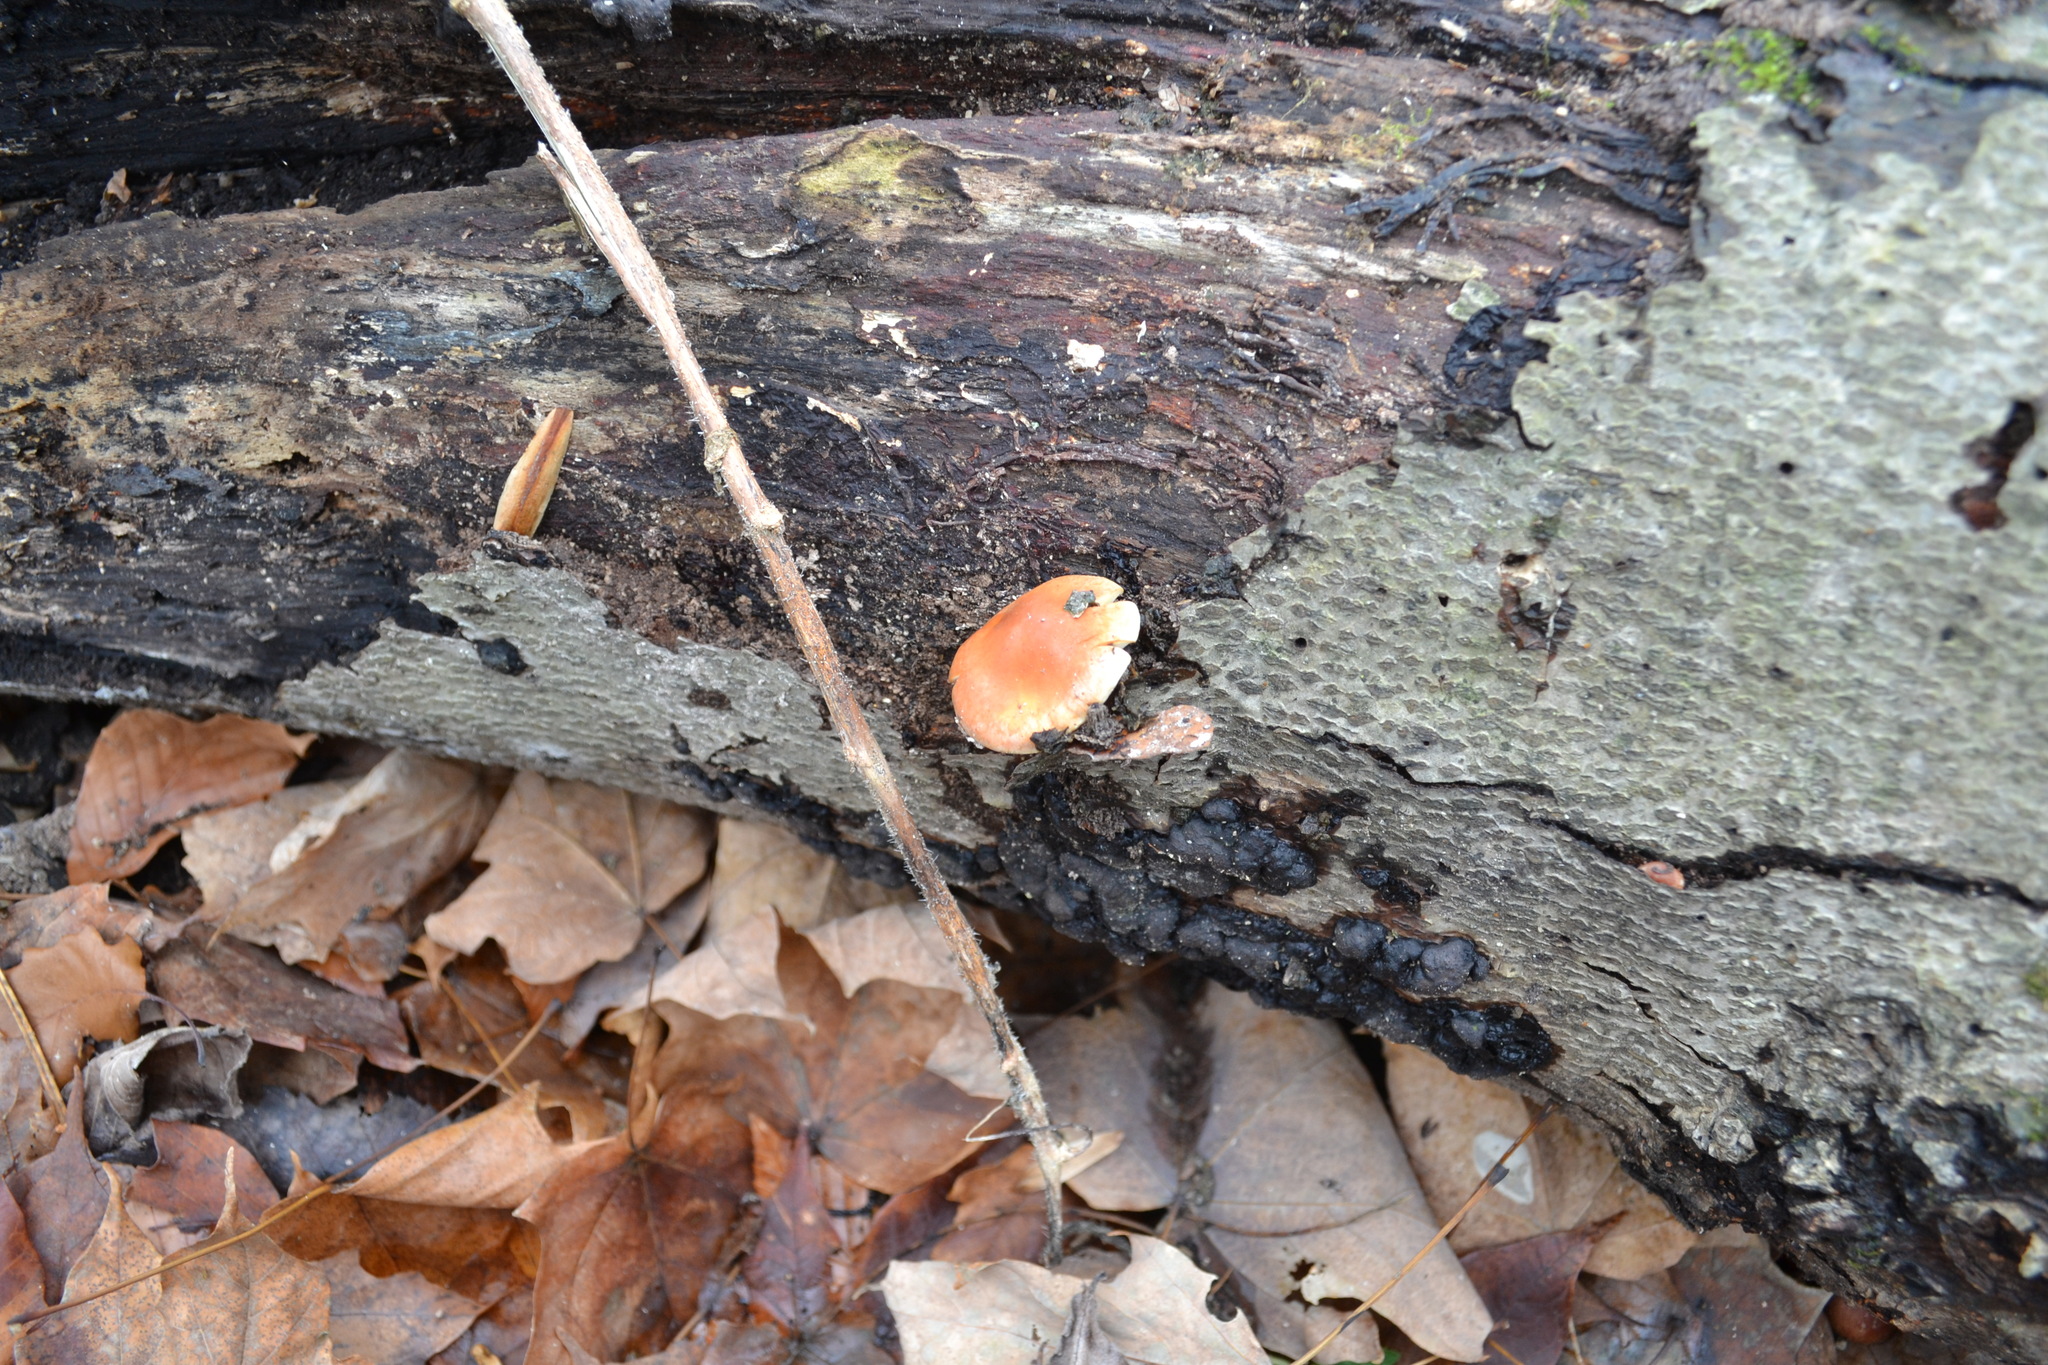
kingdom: Fungi
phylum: Basidiomycota
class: Agaricomycetes
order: Agaricales
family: Strophariaceae
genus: Hypholoma
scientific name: Hypholoma lateritium
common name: Brick caps
